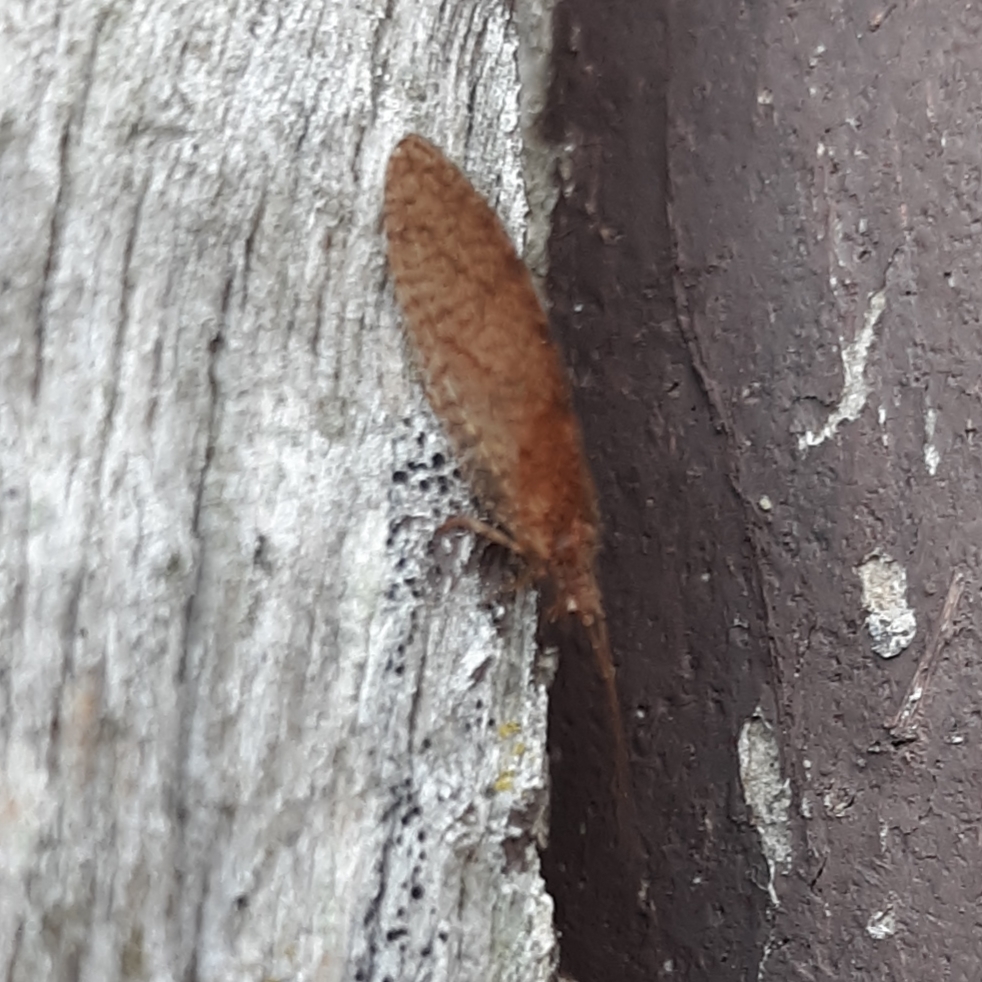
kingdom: Animalia
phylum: Arthropoda
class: Insecta
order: Neuroptera
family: Hemerobiidae
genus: Micromus
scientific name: Micromus posticus
